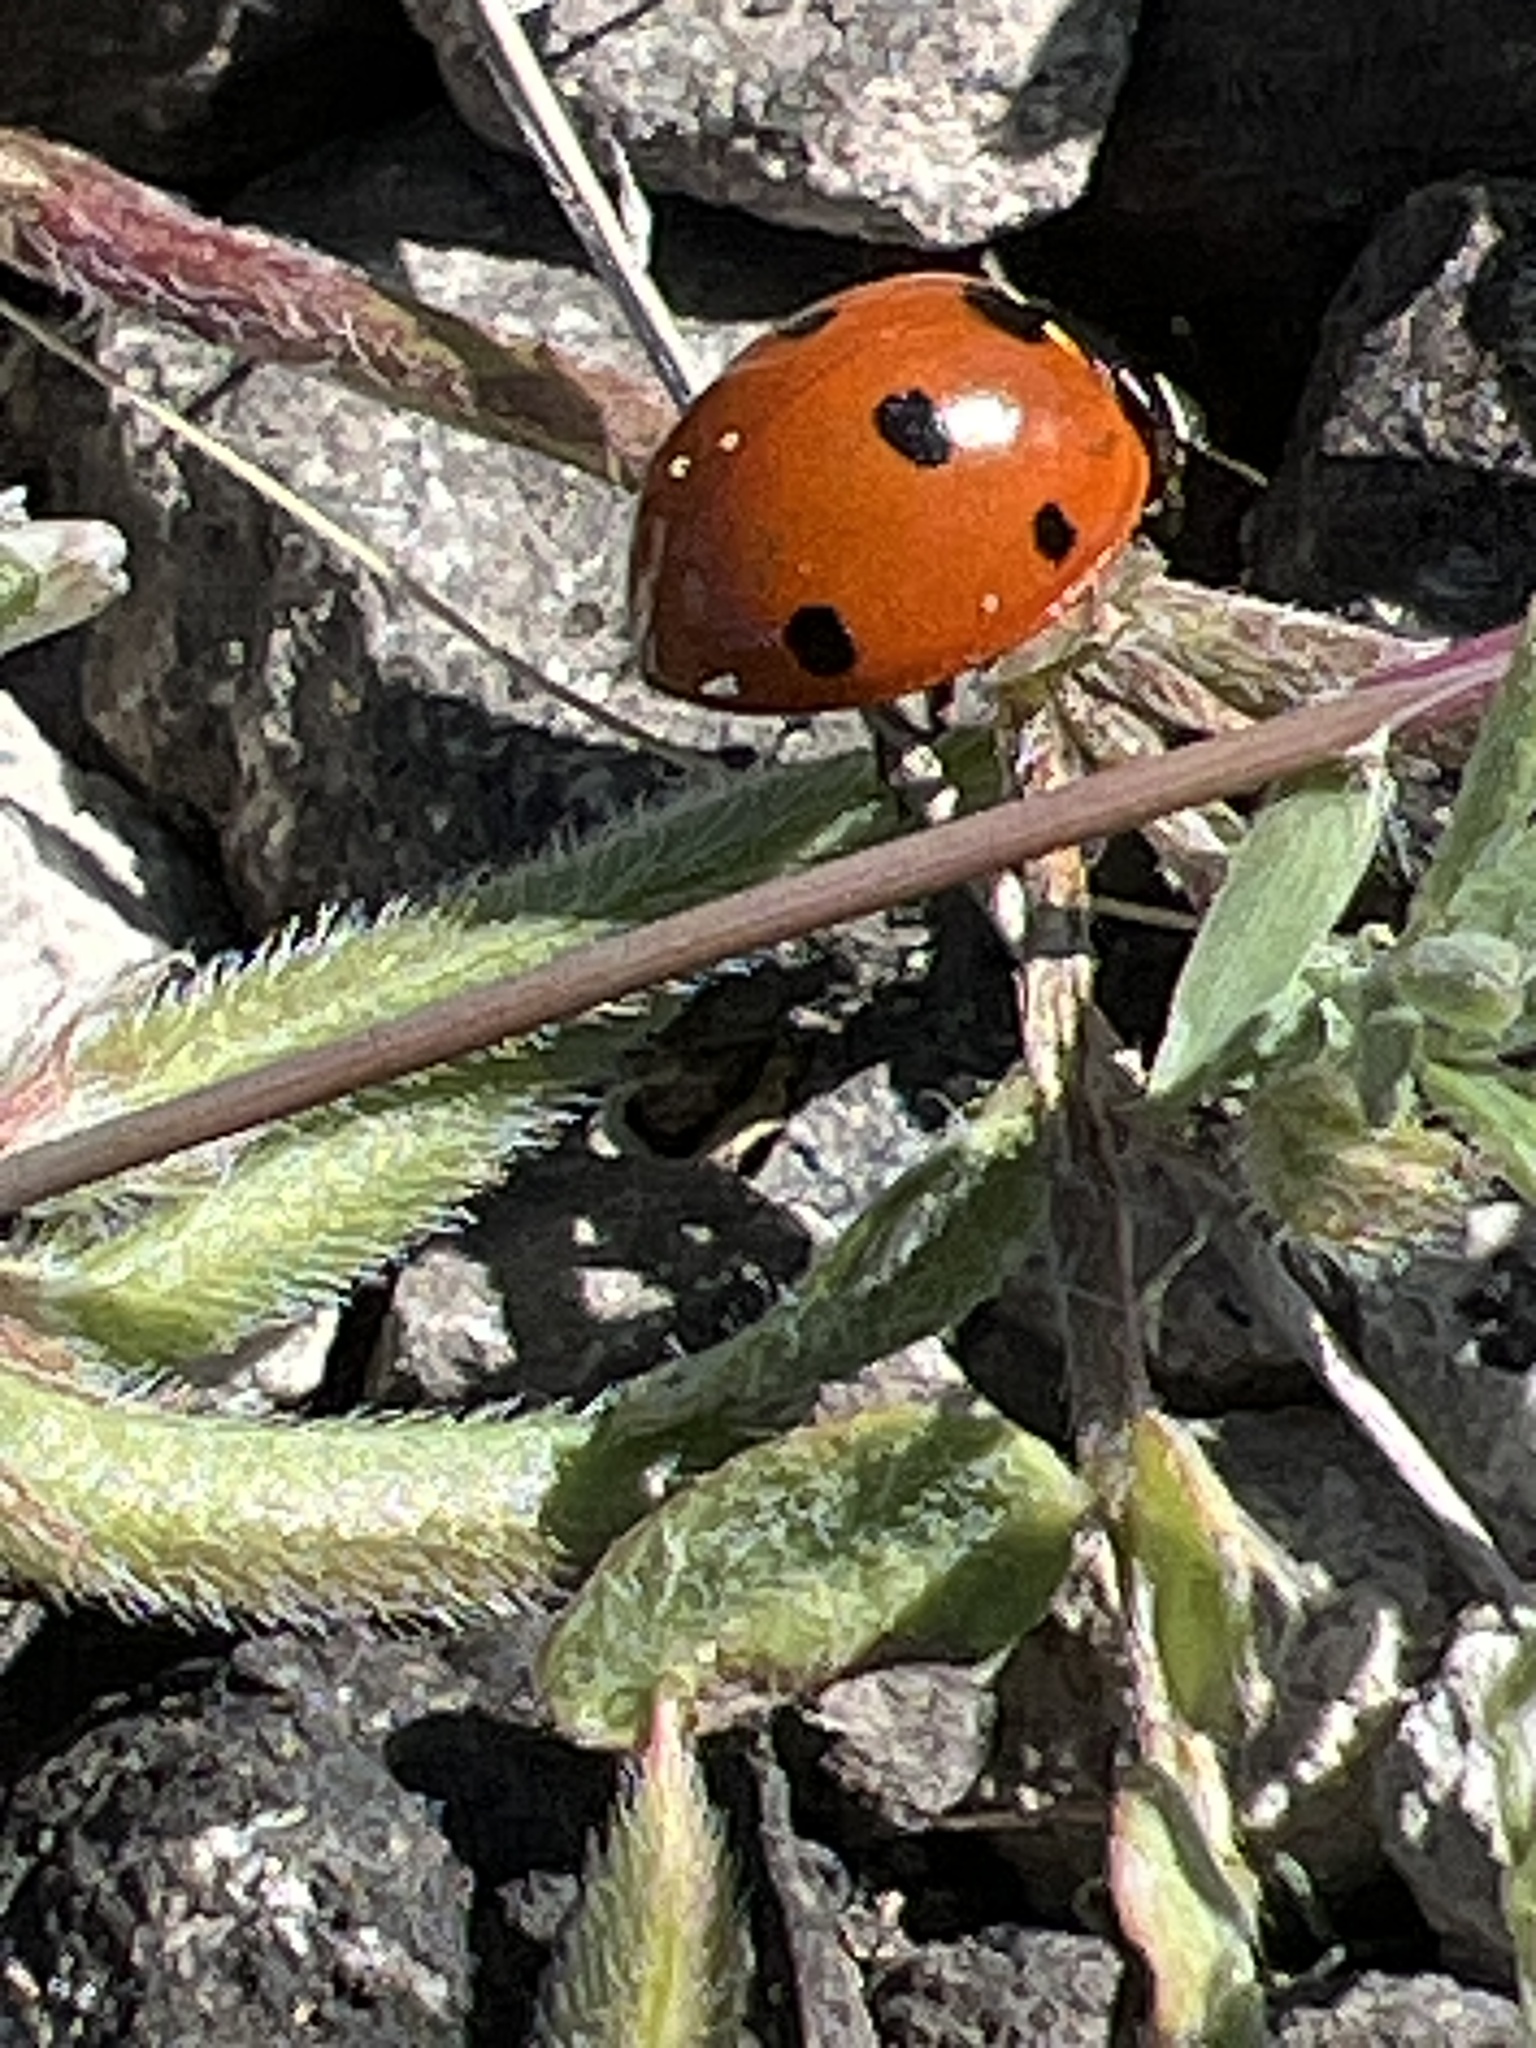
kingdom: Animalia
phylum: Arthropoda
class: Insecta
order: Coleoptera
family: Coccinellidae
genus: Coccinella
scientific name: Coccinella septempunctata
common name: Sevenspotted lady beetle
